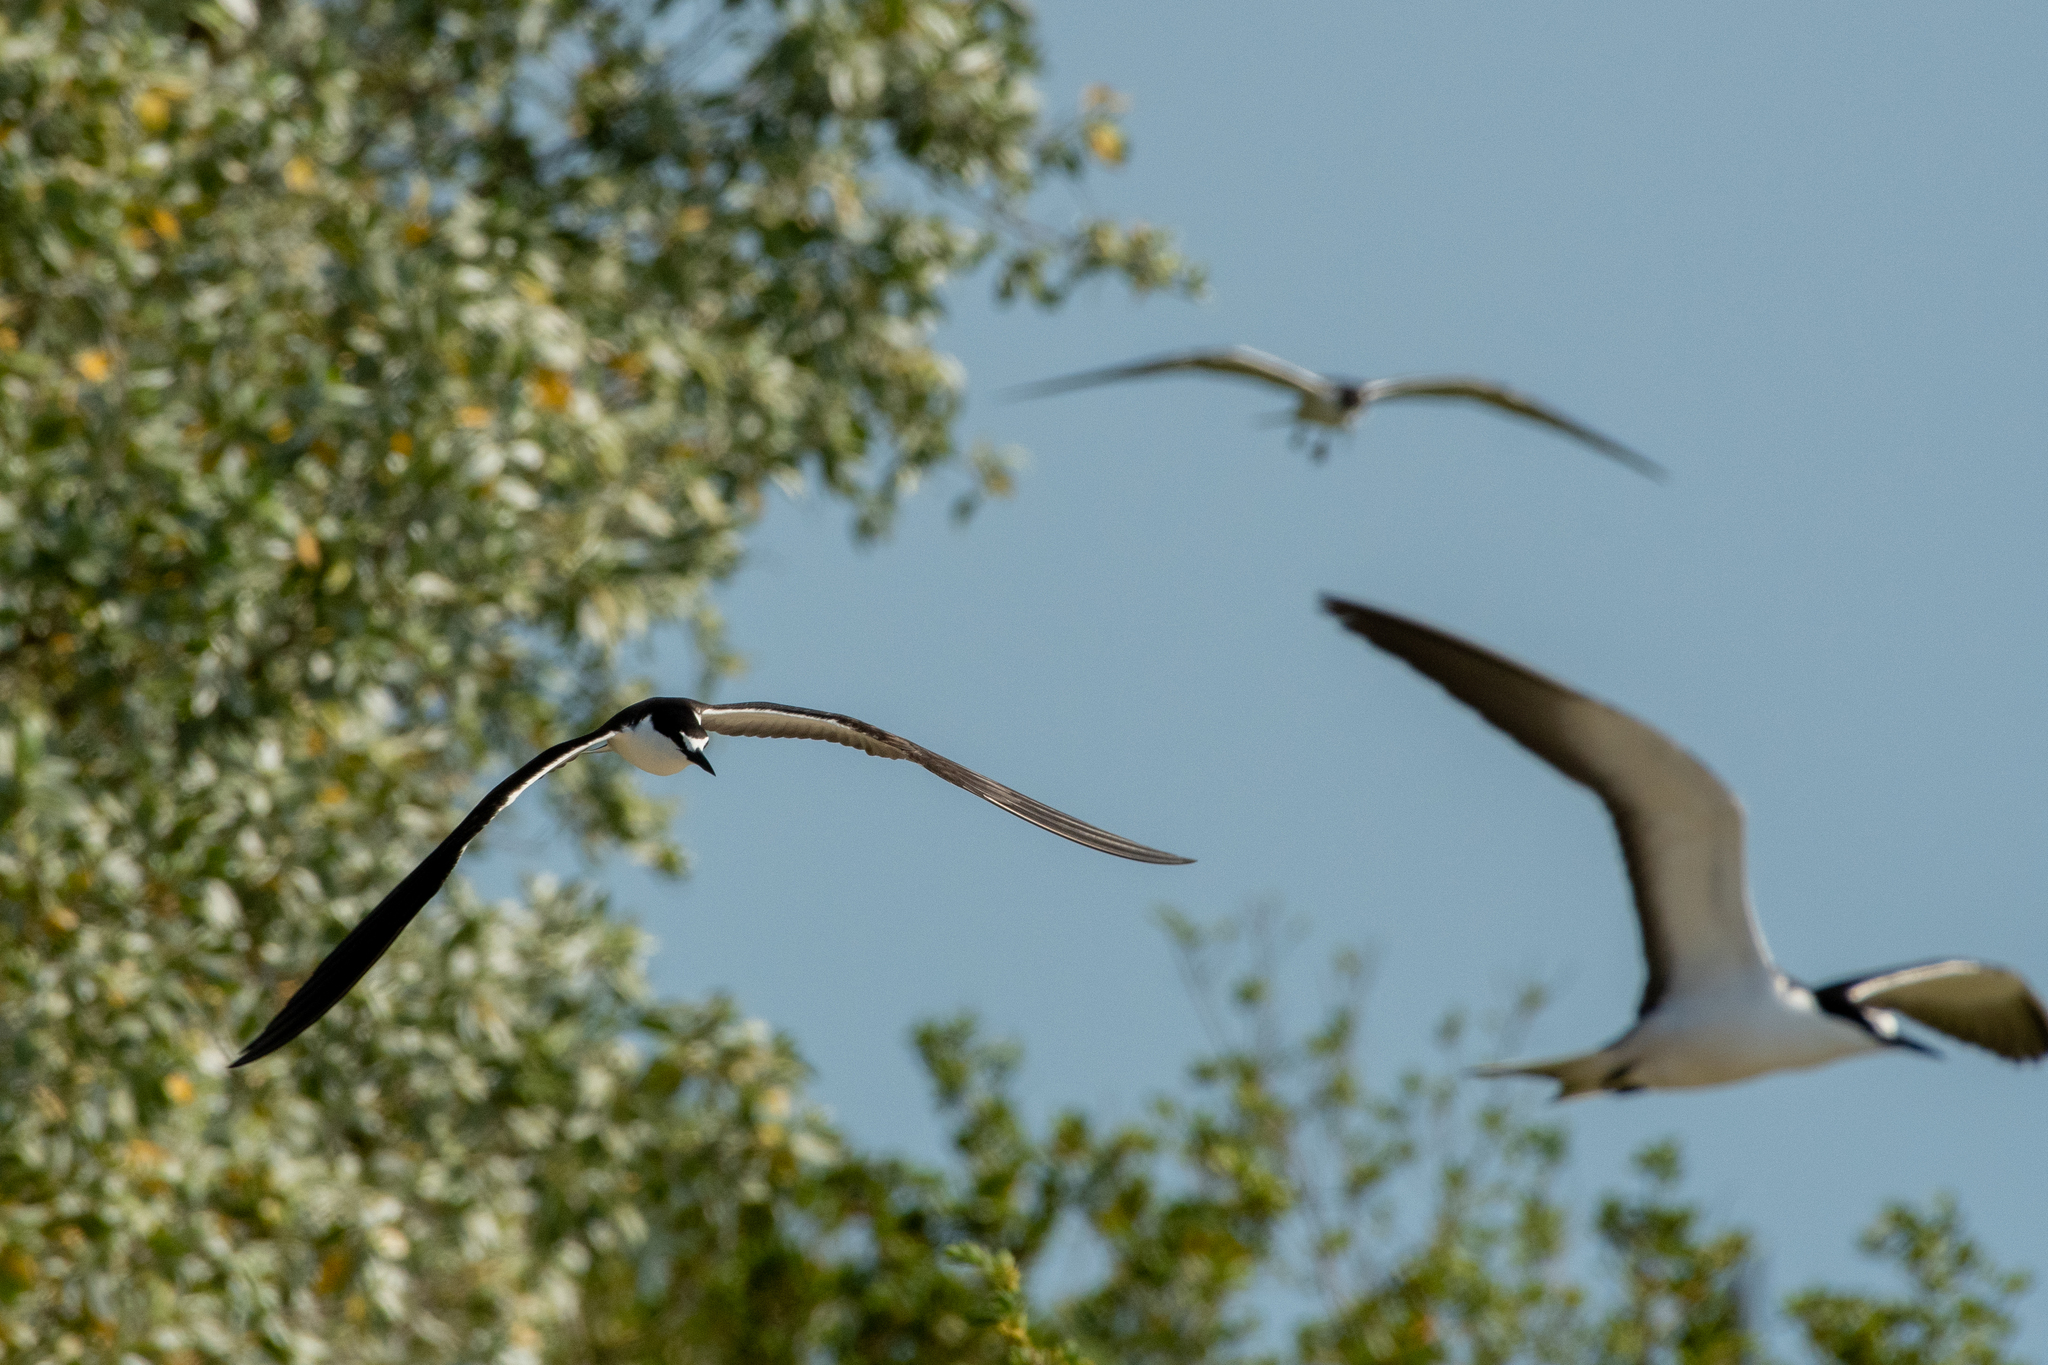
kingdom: Animalia
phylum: Chordata
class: Aves
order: Charadriiformes
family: Laridae
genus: Onychoprion
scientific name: Onychoprion fuscatus
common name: Sooty tern
